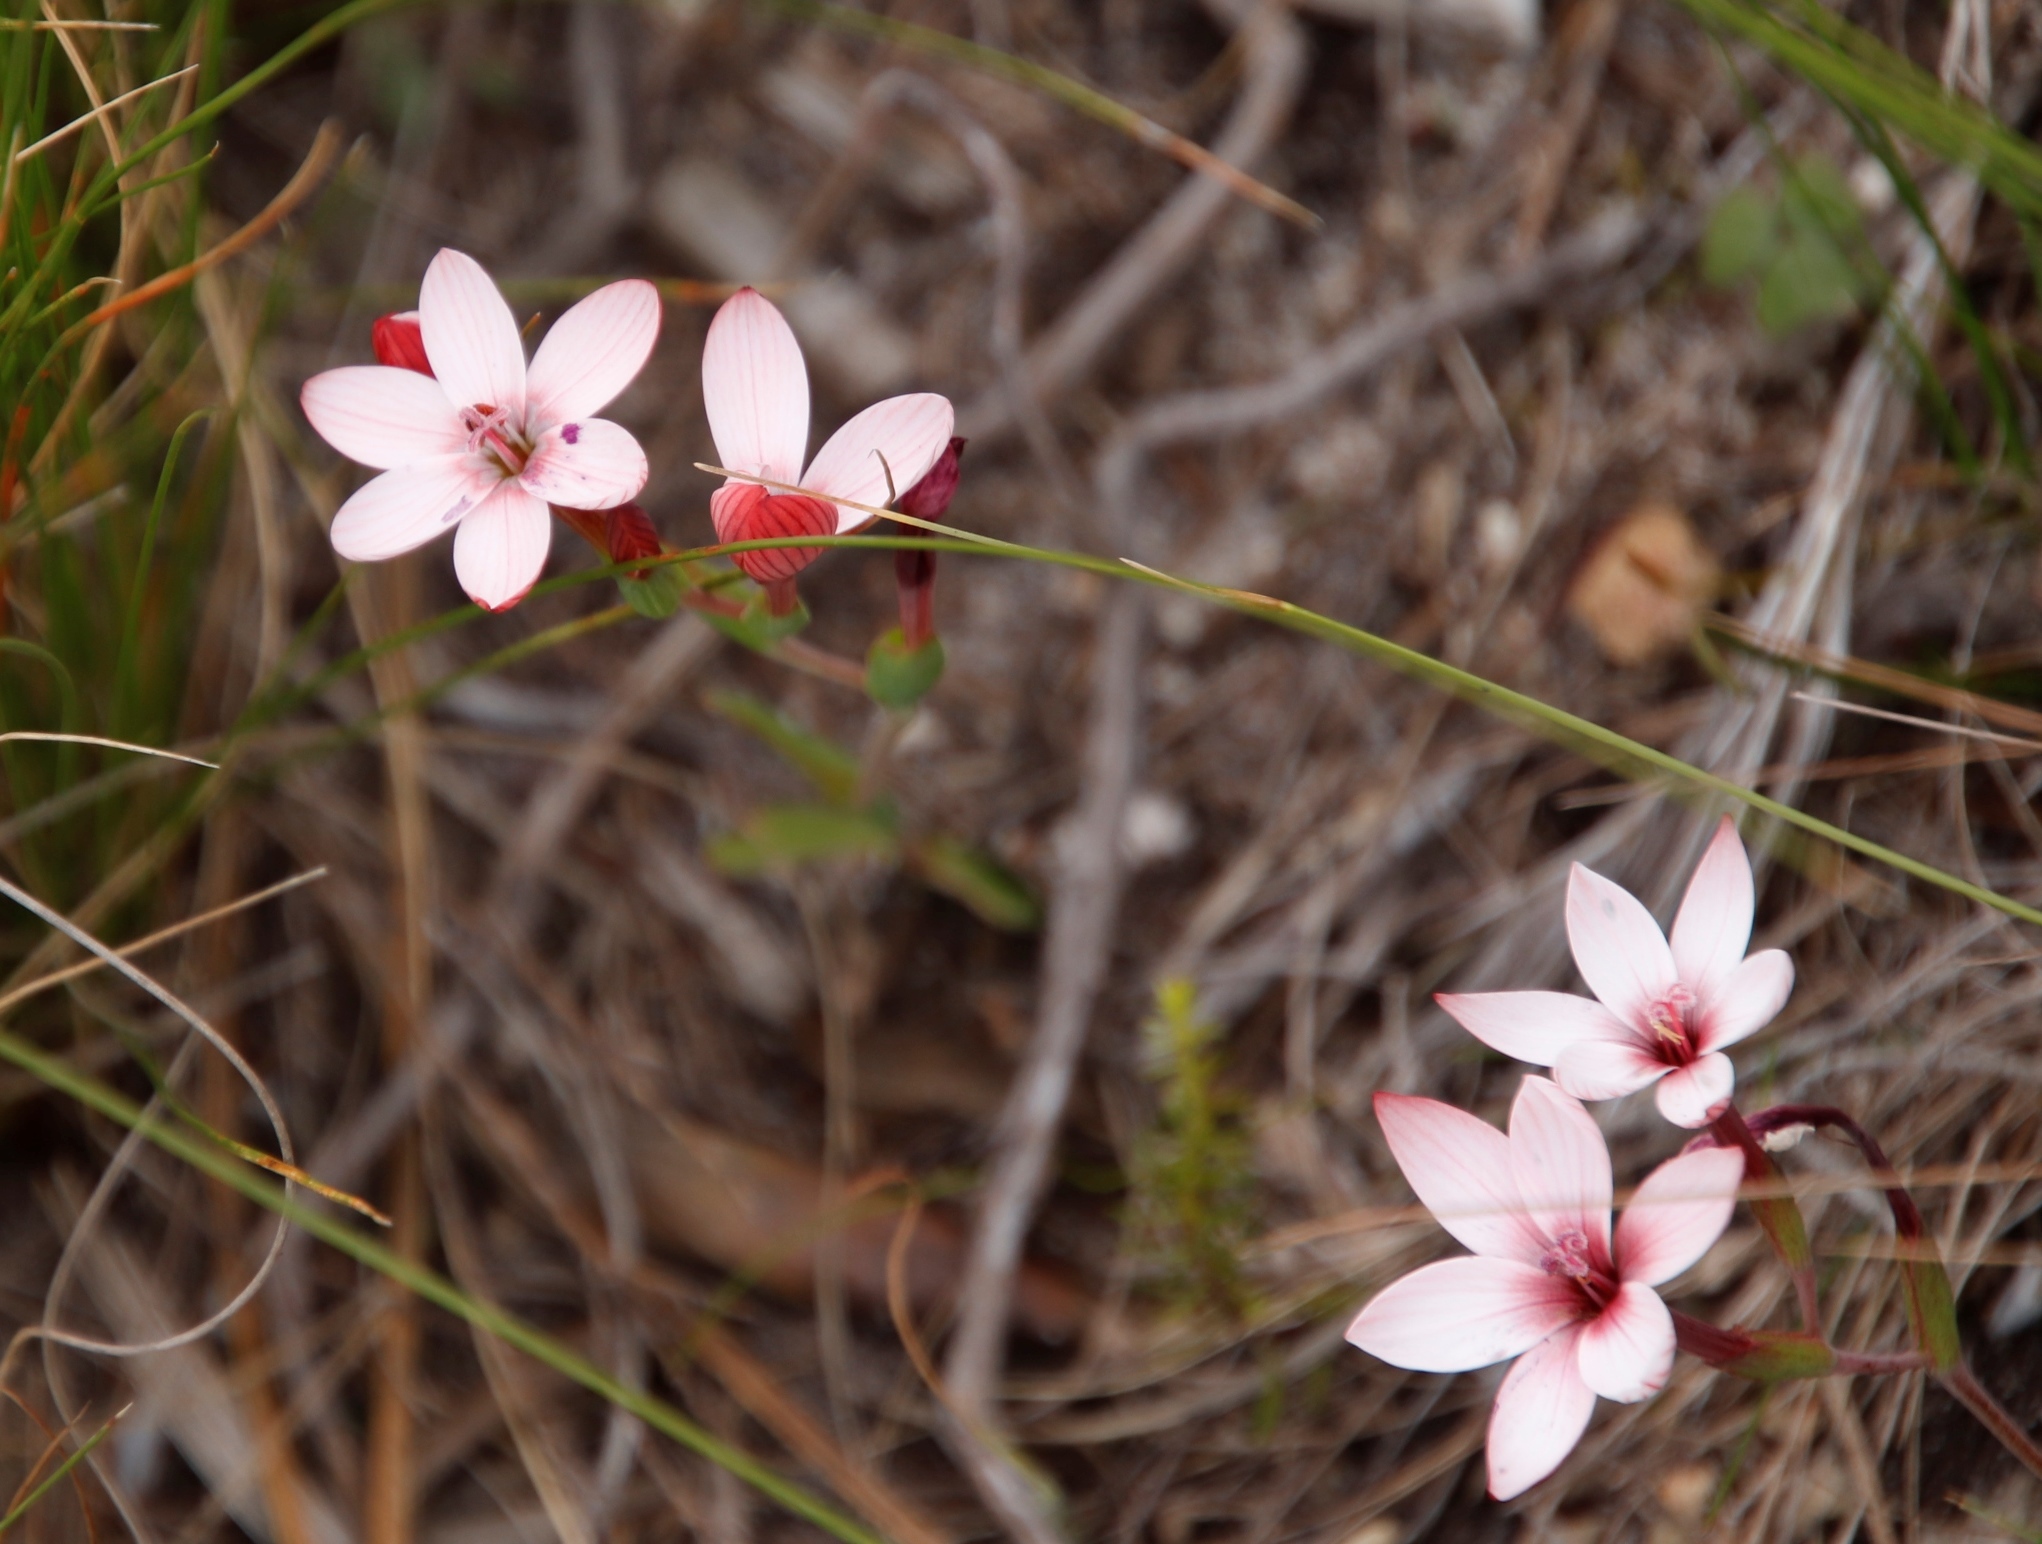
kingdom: Plantae
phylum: Tracheophyta
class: Liliopsida
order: Asparagales
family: Iridaceae
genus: Geissorhiza
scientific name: Geissorhiza ovata
